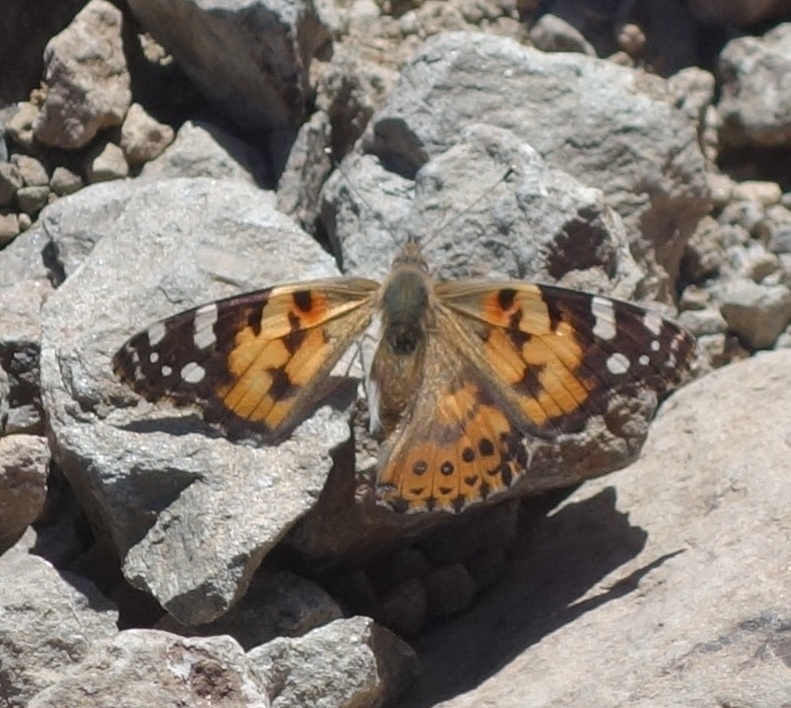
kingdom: Animalia
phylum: Arthropoda
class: Insecta
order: Lepidoptera
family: Nymphalidae
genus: Vanessa
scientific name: Vanessa cardui
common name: Painted lady
